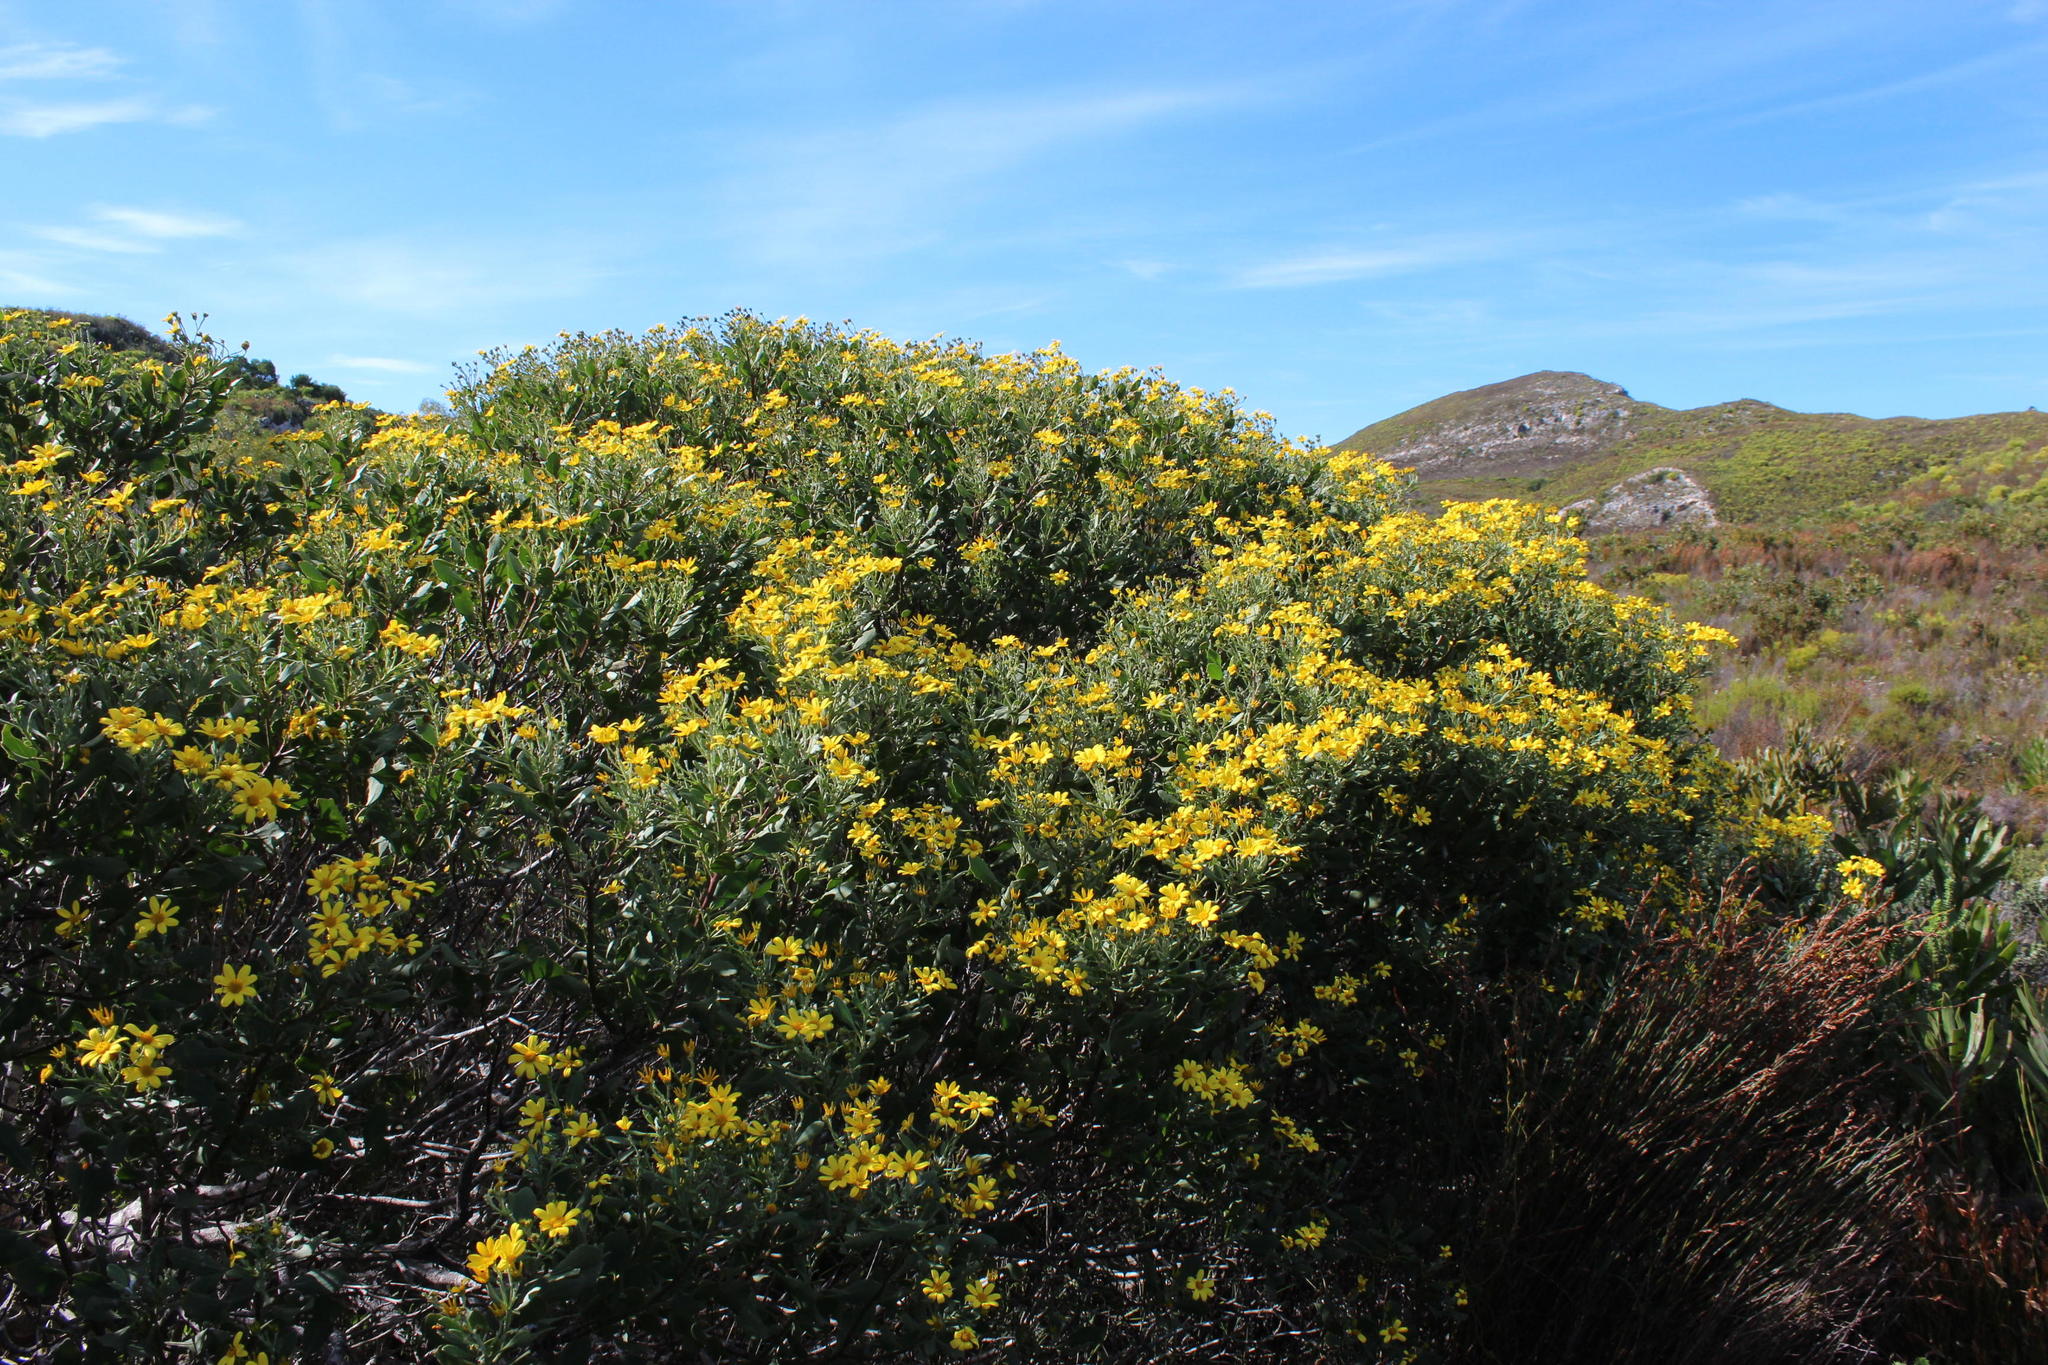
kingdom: Plantae
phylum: Tracheophyta
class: Magnoliopsida
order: Asterales
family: Asteraceae
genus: Osteospermum
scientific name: Osteospermum moniliferum
